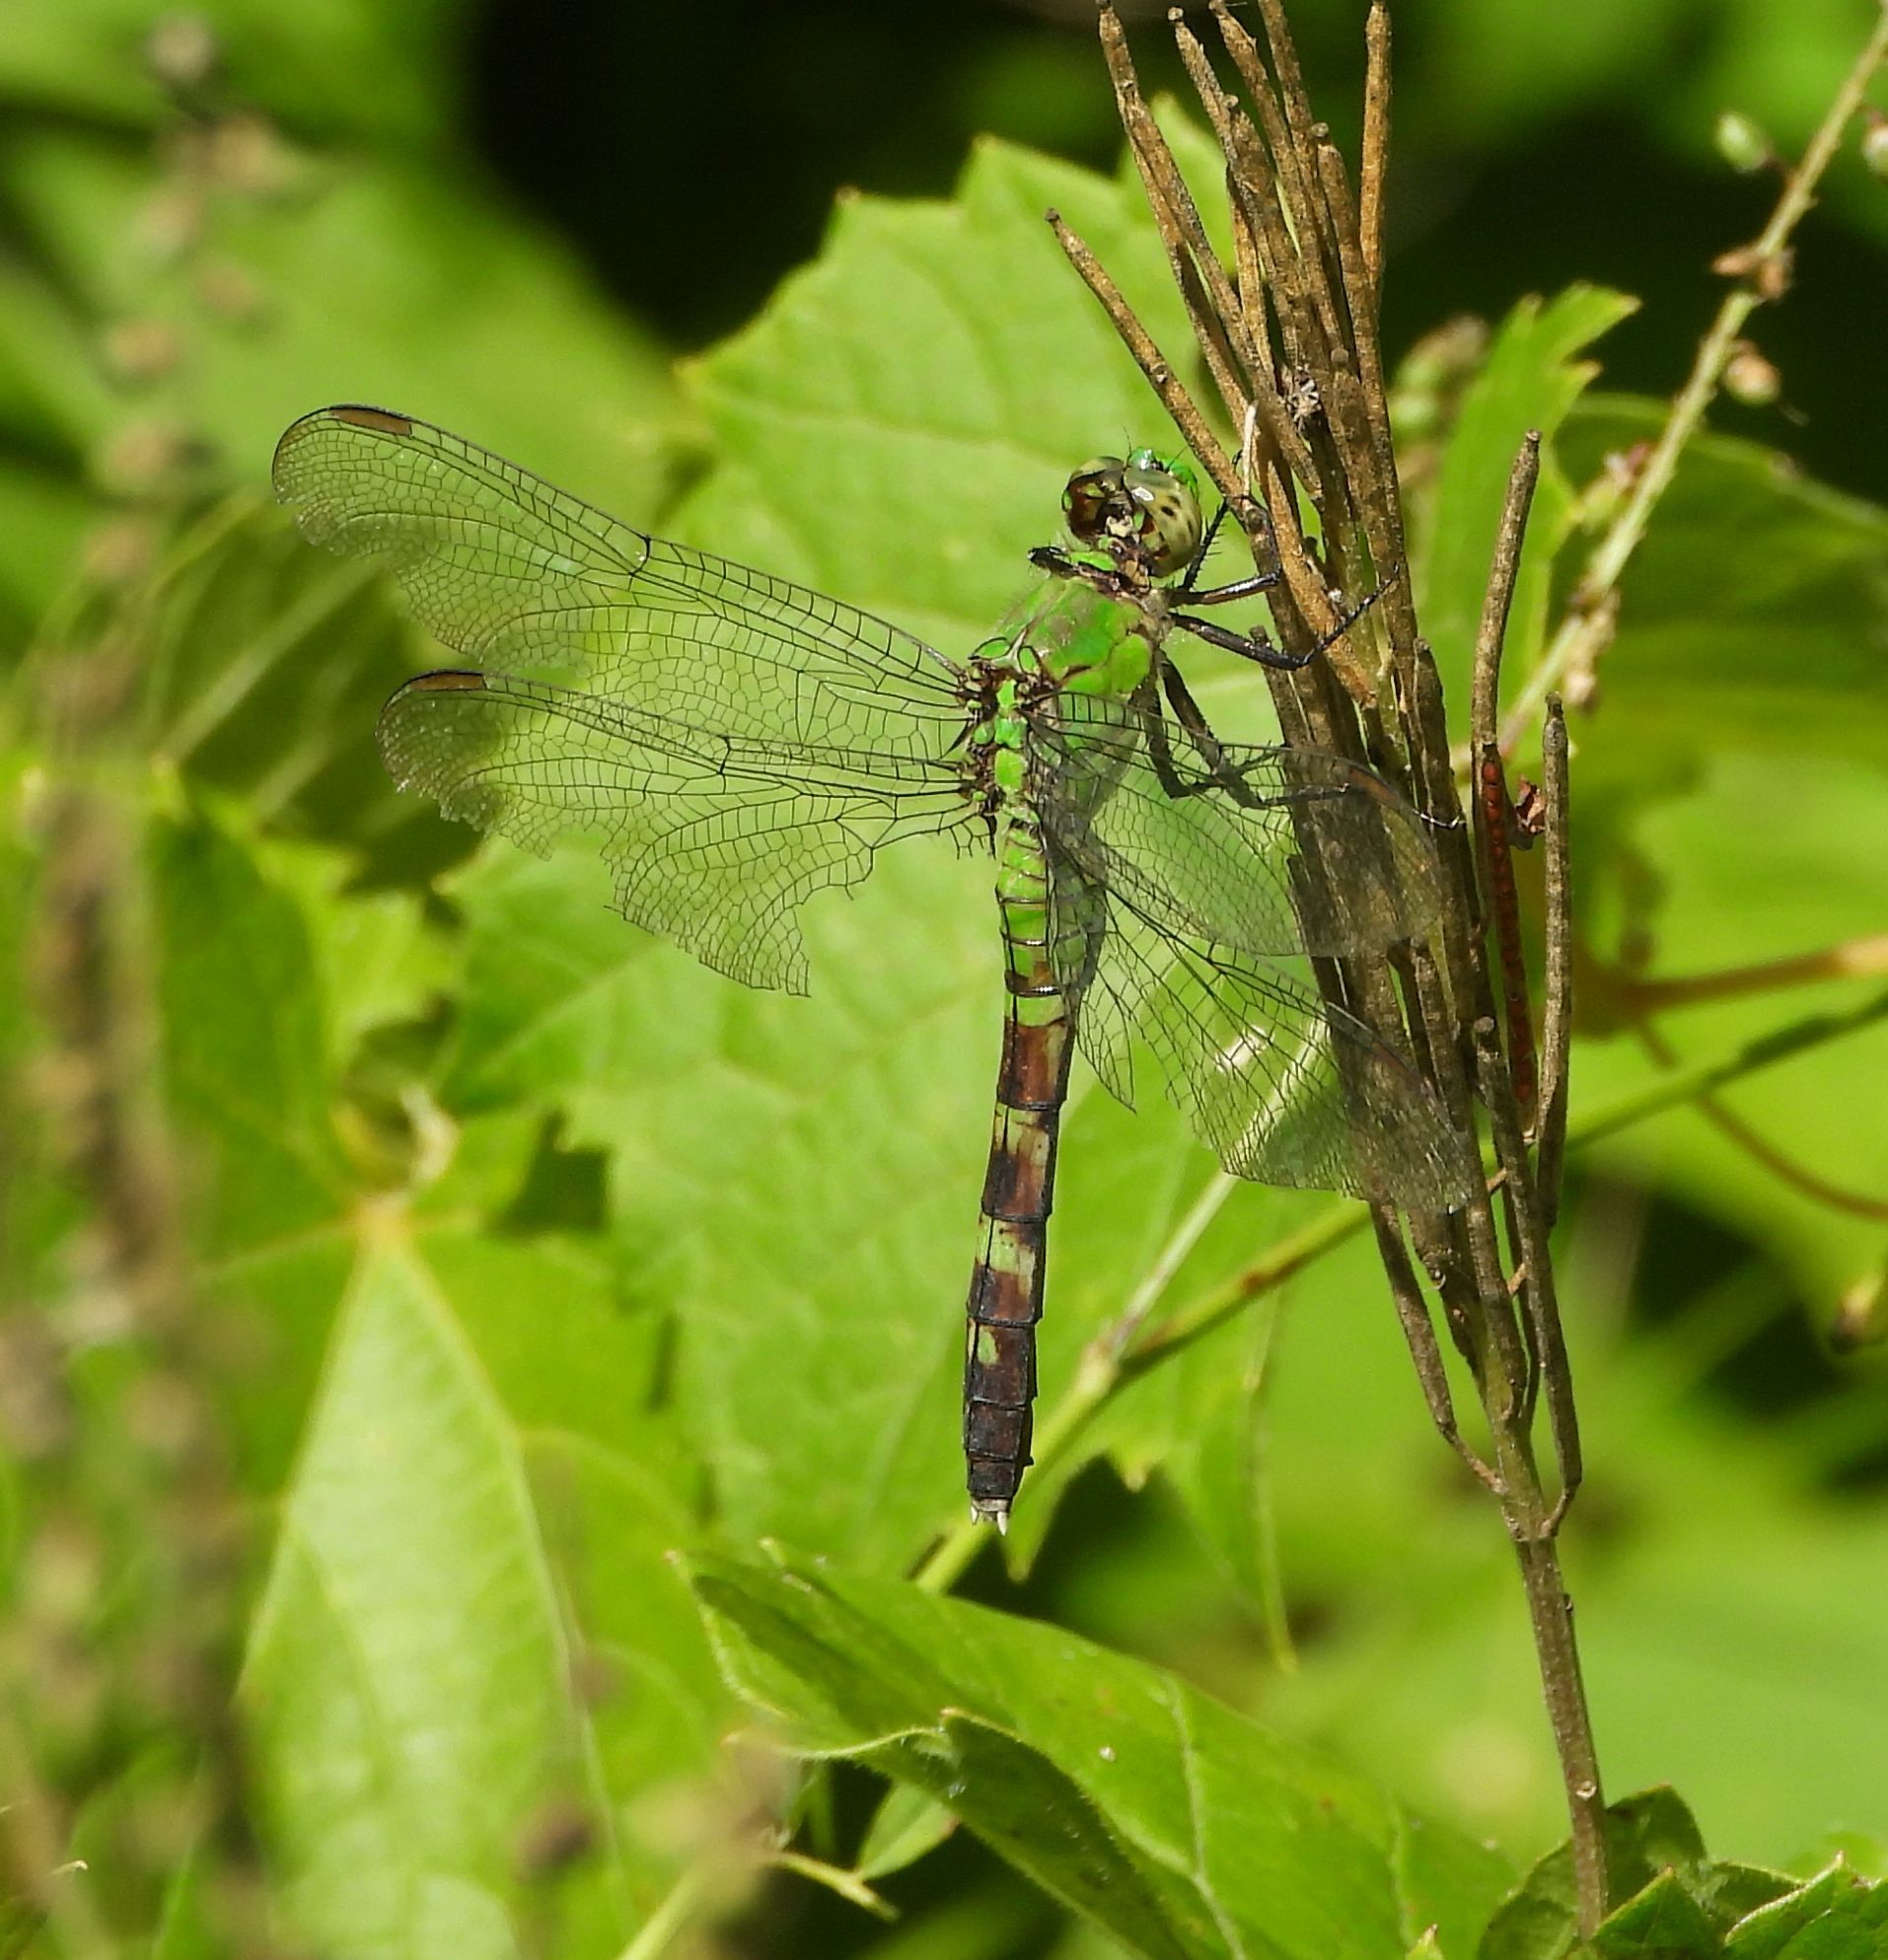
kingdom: Animalia
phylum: Arthropoda
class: Insecta
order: Odonata
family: Libellulidae
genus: Erythemis
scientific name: Erythemis simplicicollis
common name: Eastern pondhawk
